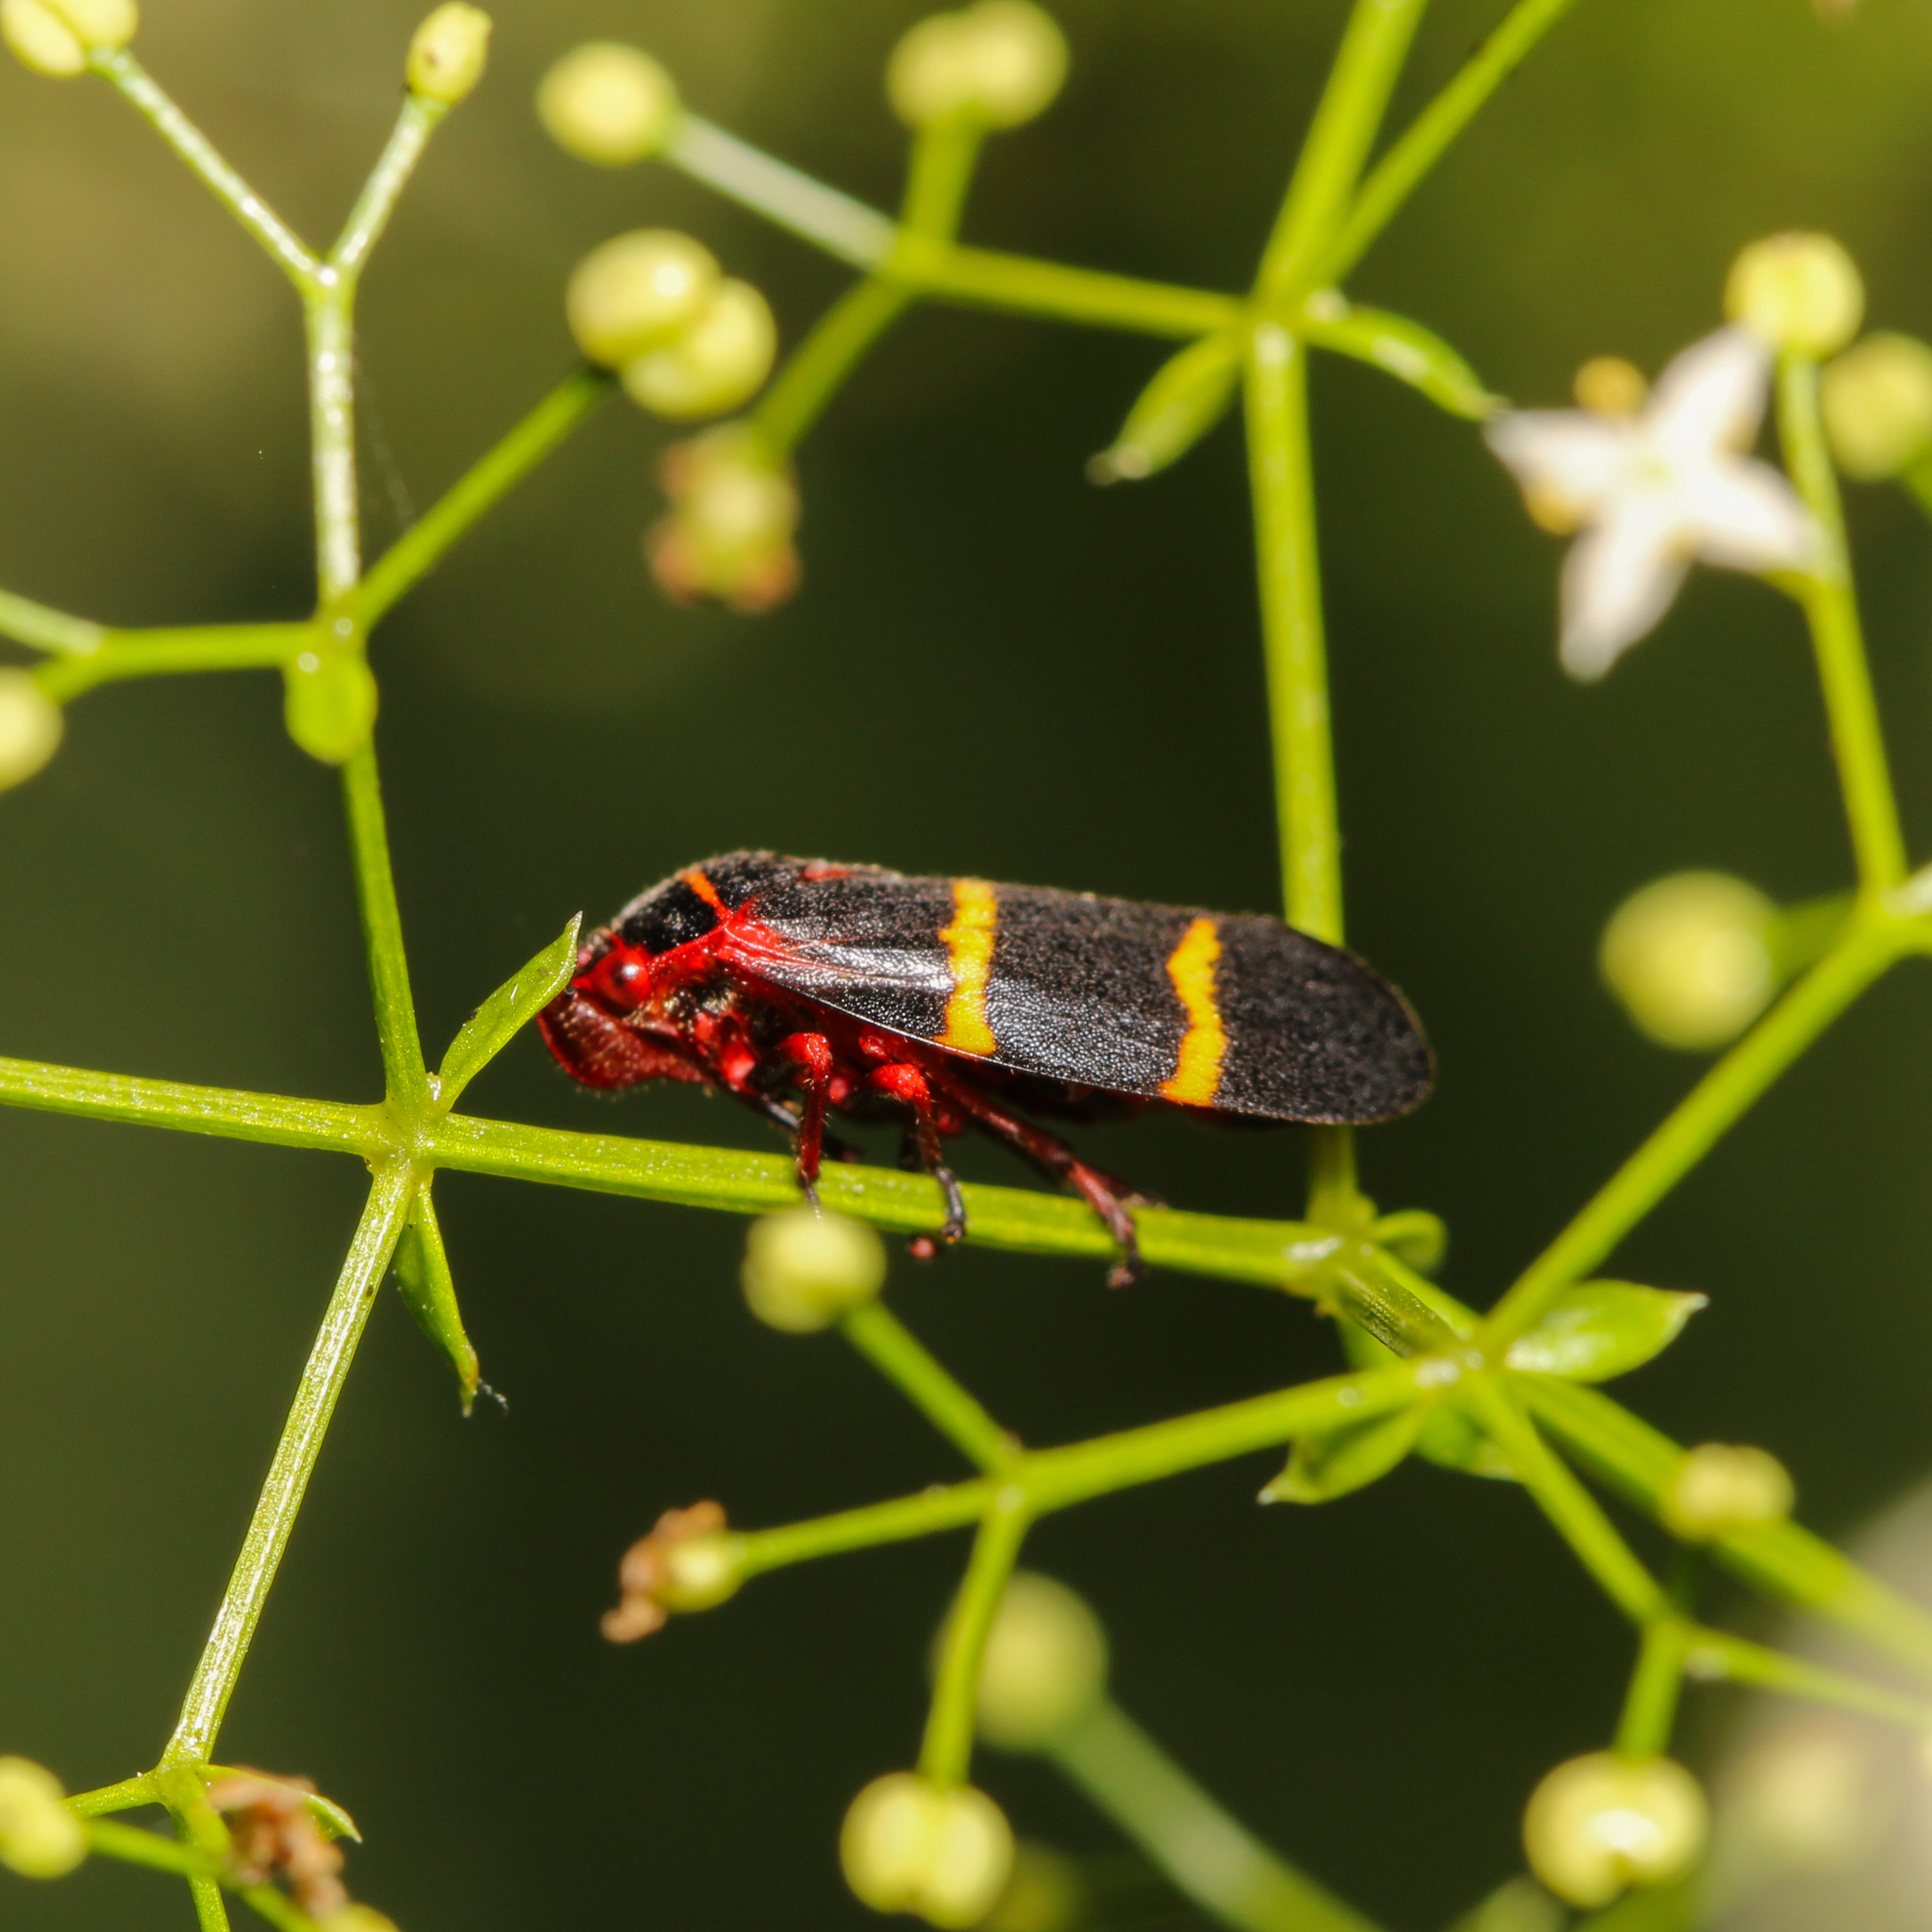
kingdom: Animalia
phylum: Arthropoda
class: Insecta
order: Hemiptera
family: Cercopidae
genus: Prosapia
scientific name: Prosapia bicincta
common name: Twolined spittlebug
